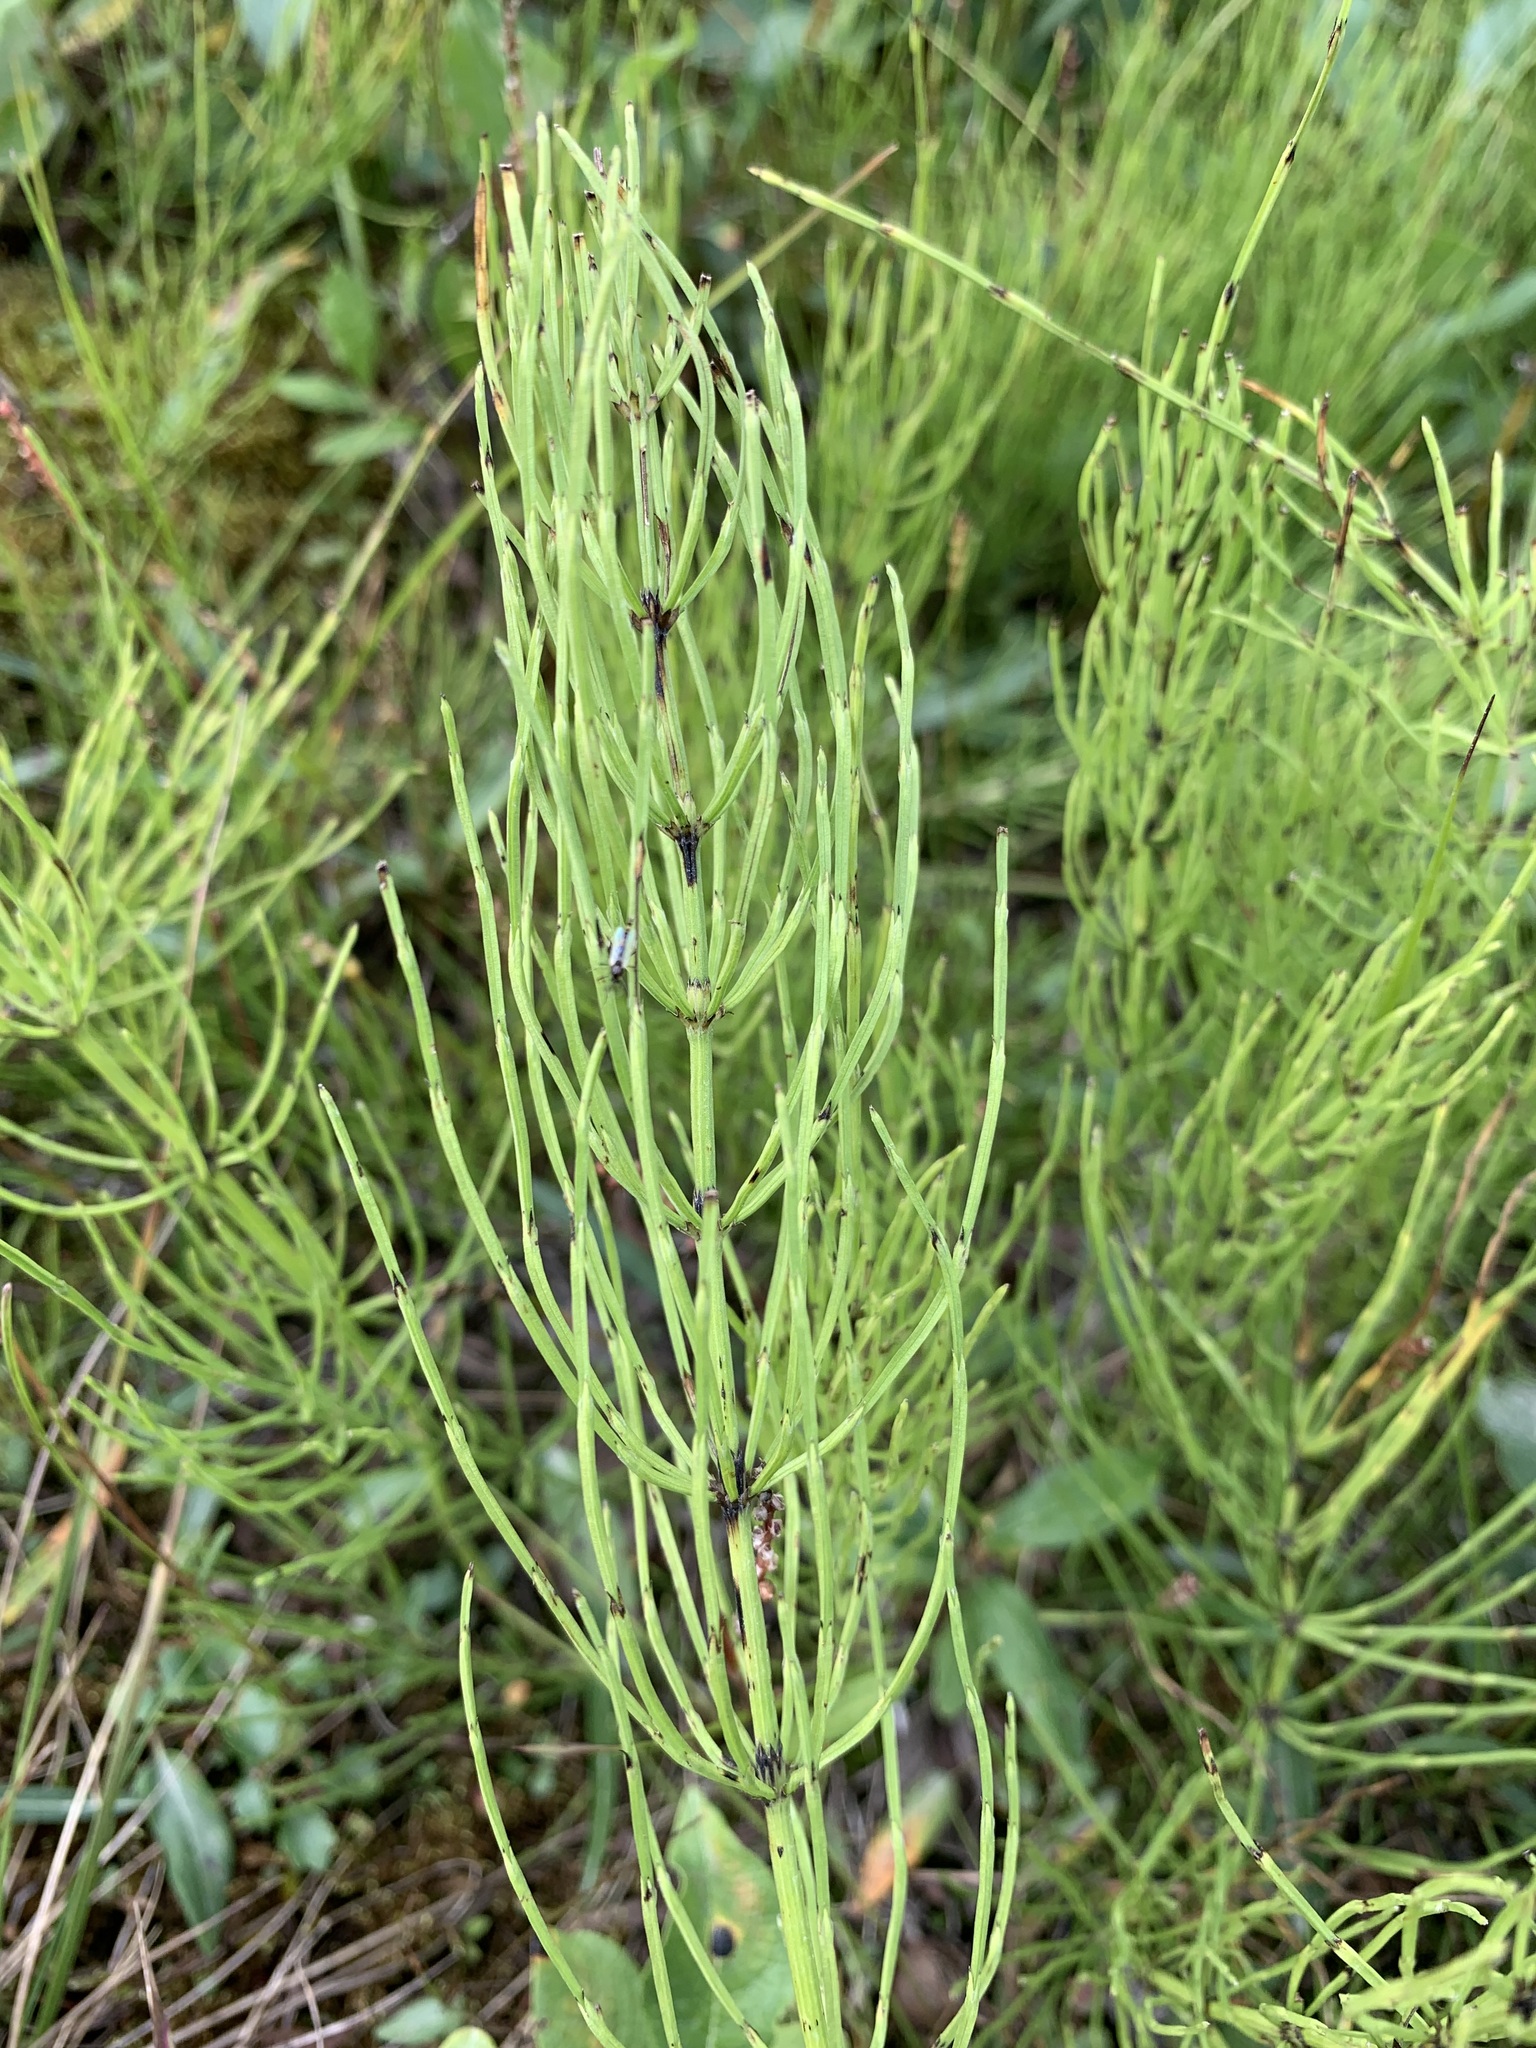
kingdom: Plantae
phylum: Tracheophyta
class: Polypodiopsida
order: Equisetales
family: Equisetaceae
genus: Equisetum
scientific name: Equisetum arvense
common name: Field horsetail
